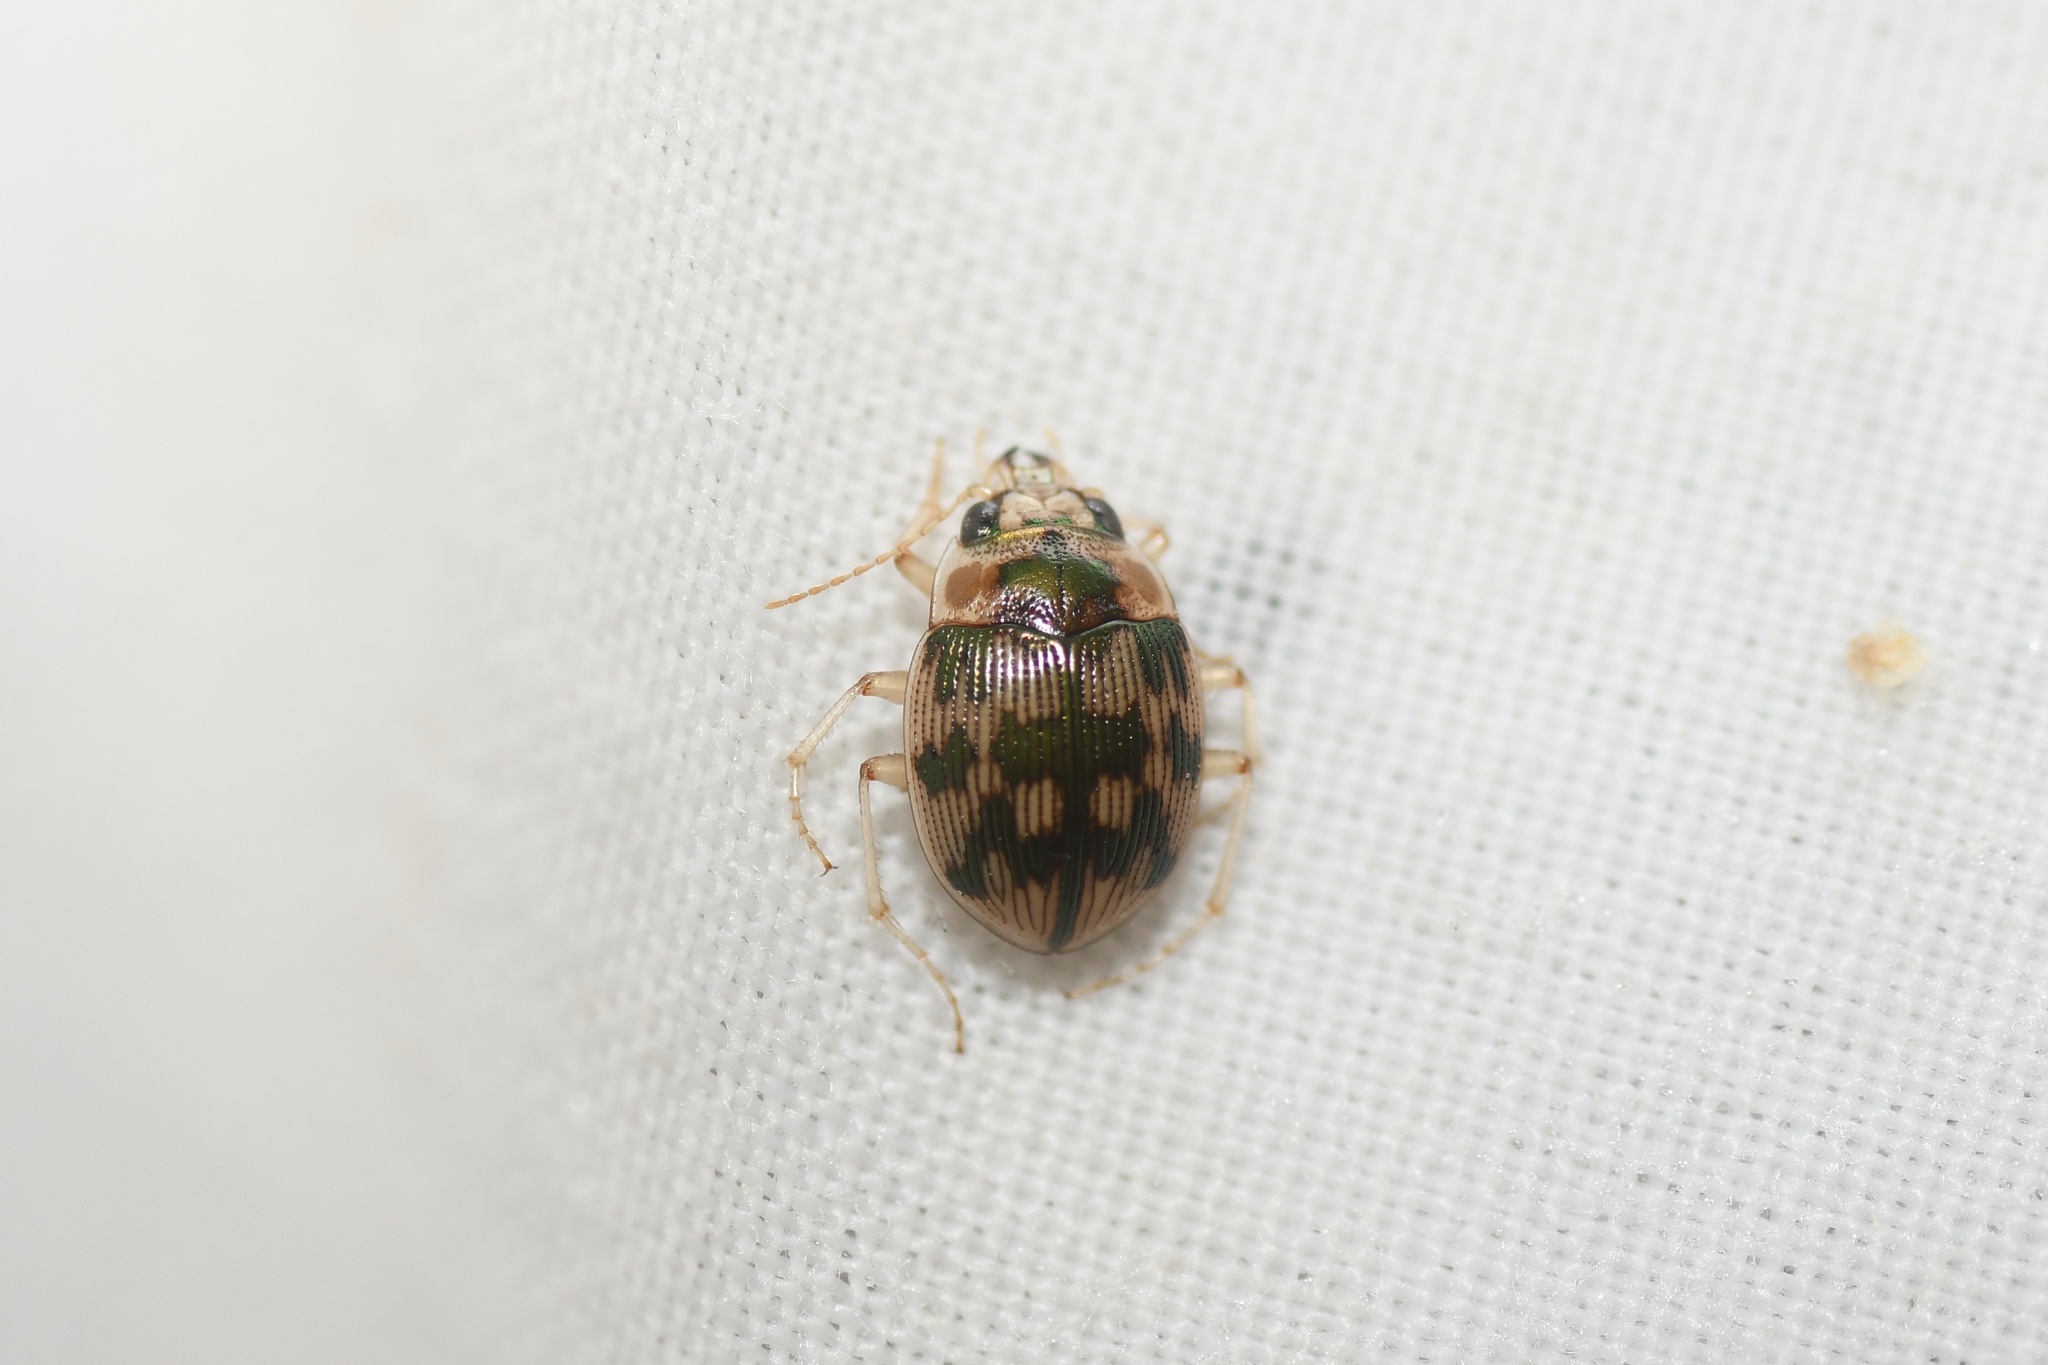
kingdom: Animalia
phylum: Arthropoda
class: Insecta
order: Coleoptera
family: Carabidae
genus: Omophron
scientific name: Omophron tessellatum
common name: Mosaic round sand beetle
